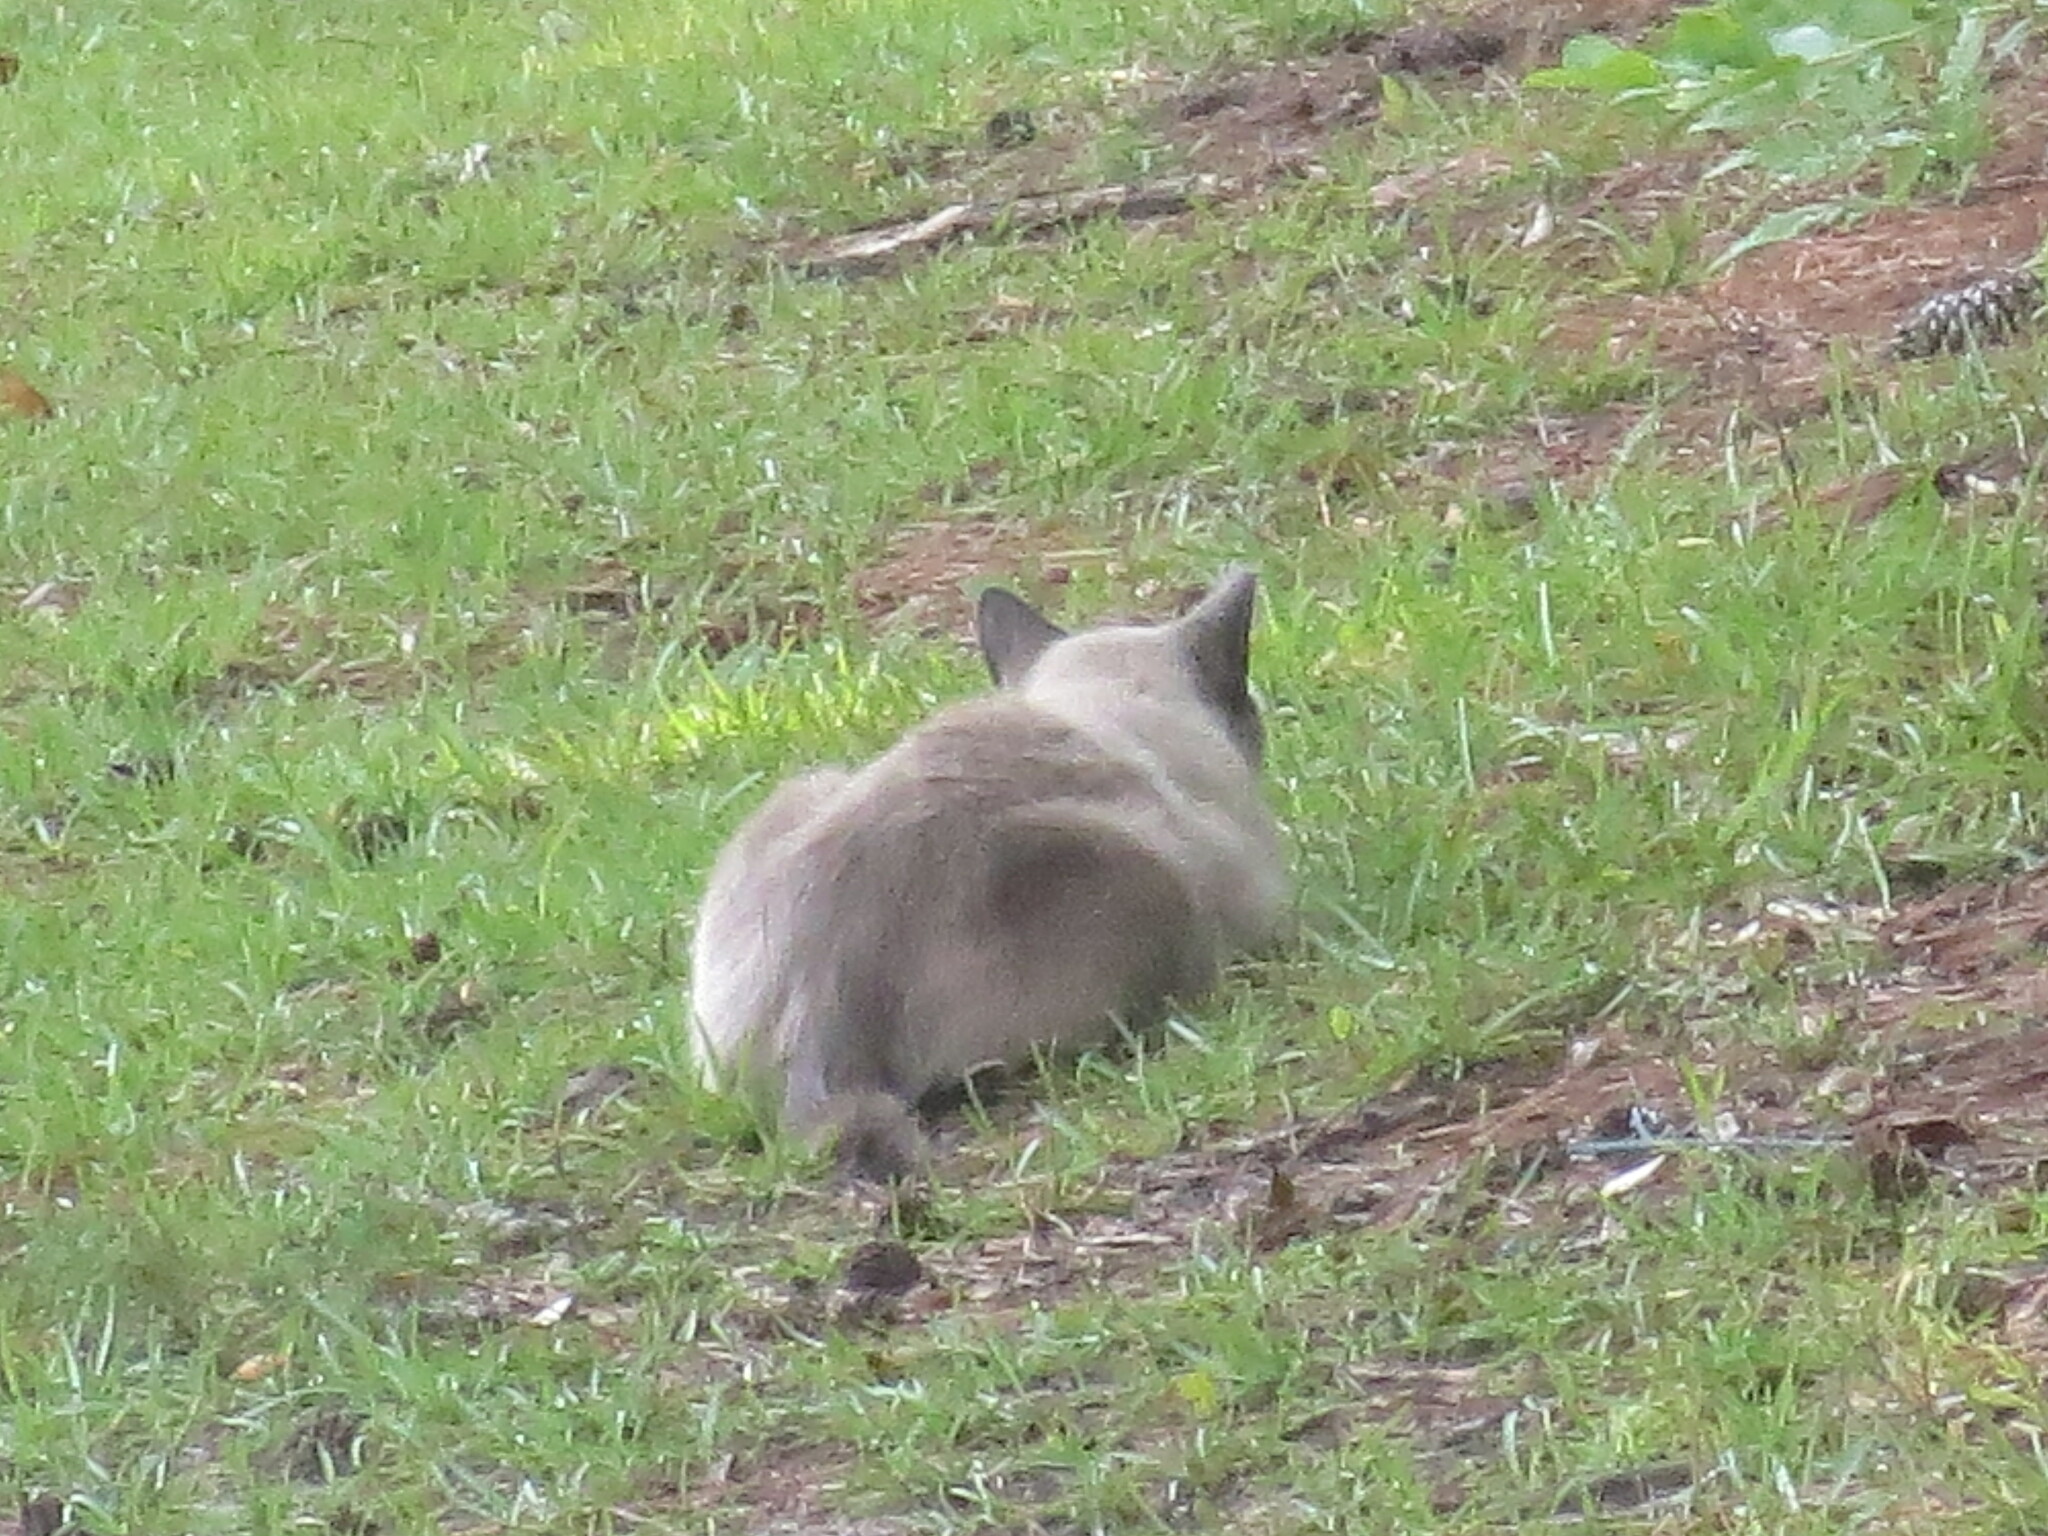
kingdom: Animalia
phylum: Chordata
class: Mammalia
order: Carnivora
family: Felidae
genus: Felis
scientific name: Felis catus
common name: Domestic cat
